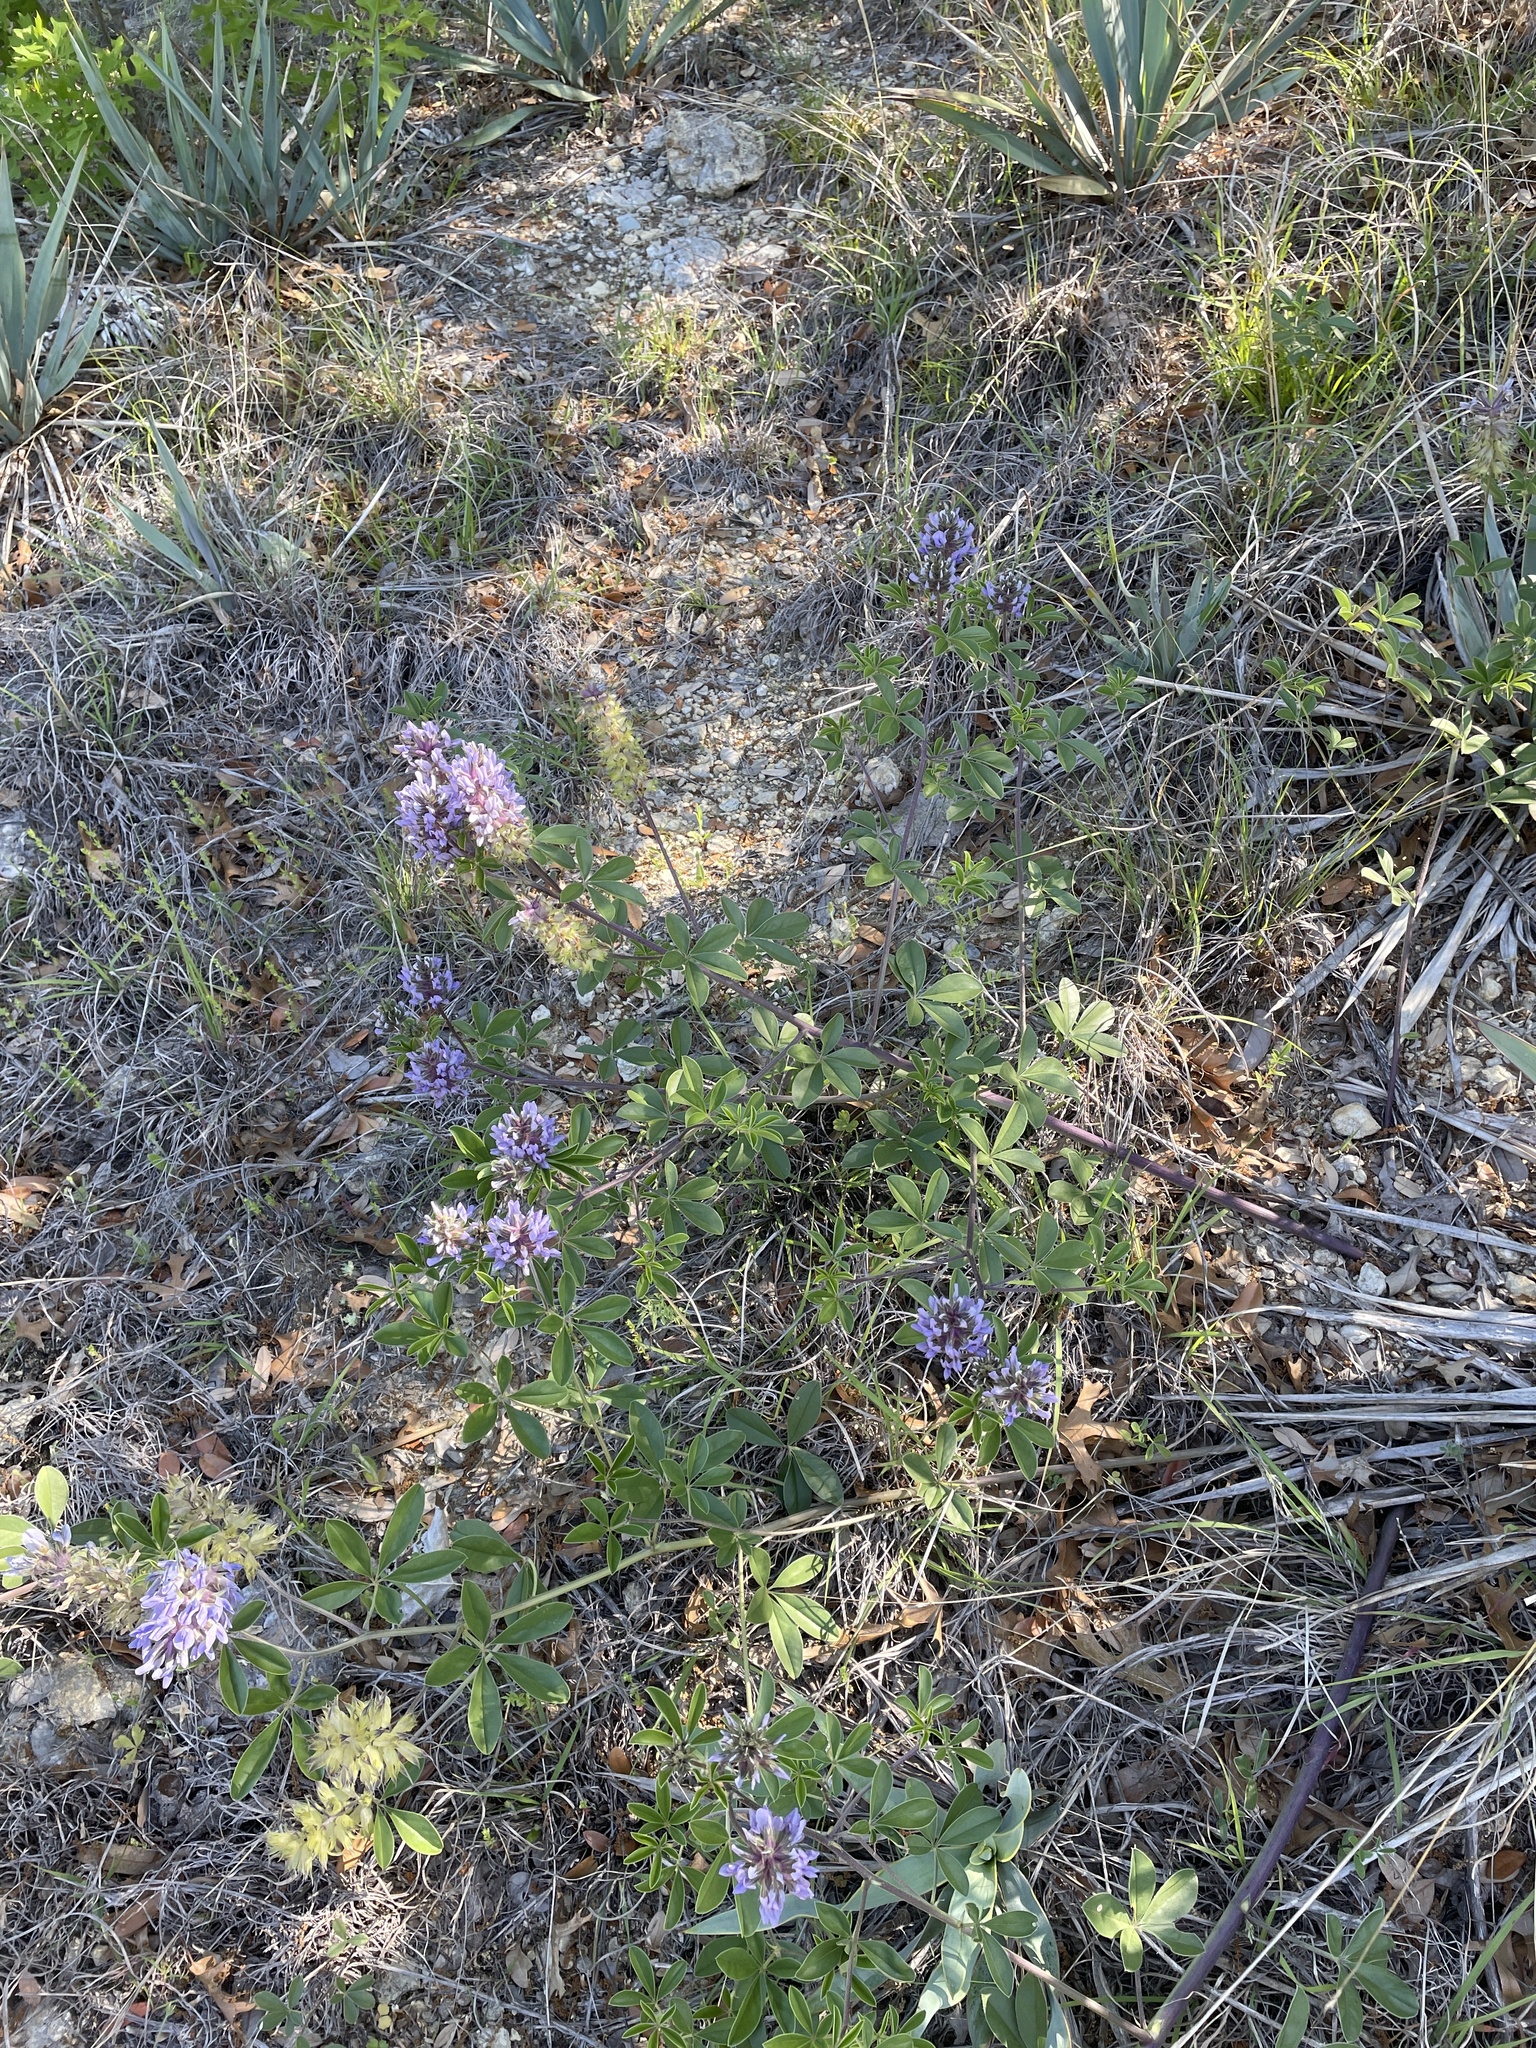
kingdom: Plantae
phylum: Tracheophyta
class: Magnoliopsida
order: Fabales
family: Fabaceae
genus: Pediomelum
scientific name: Pediomelum cuspidatum
